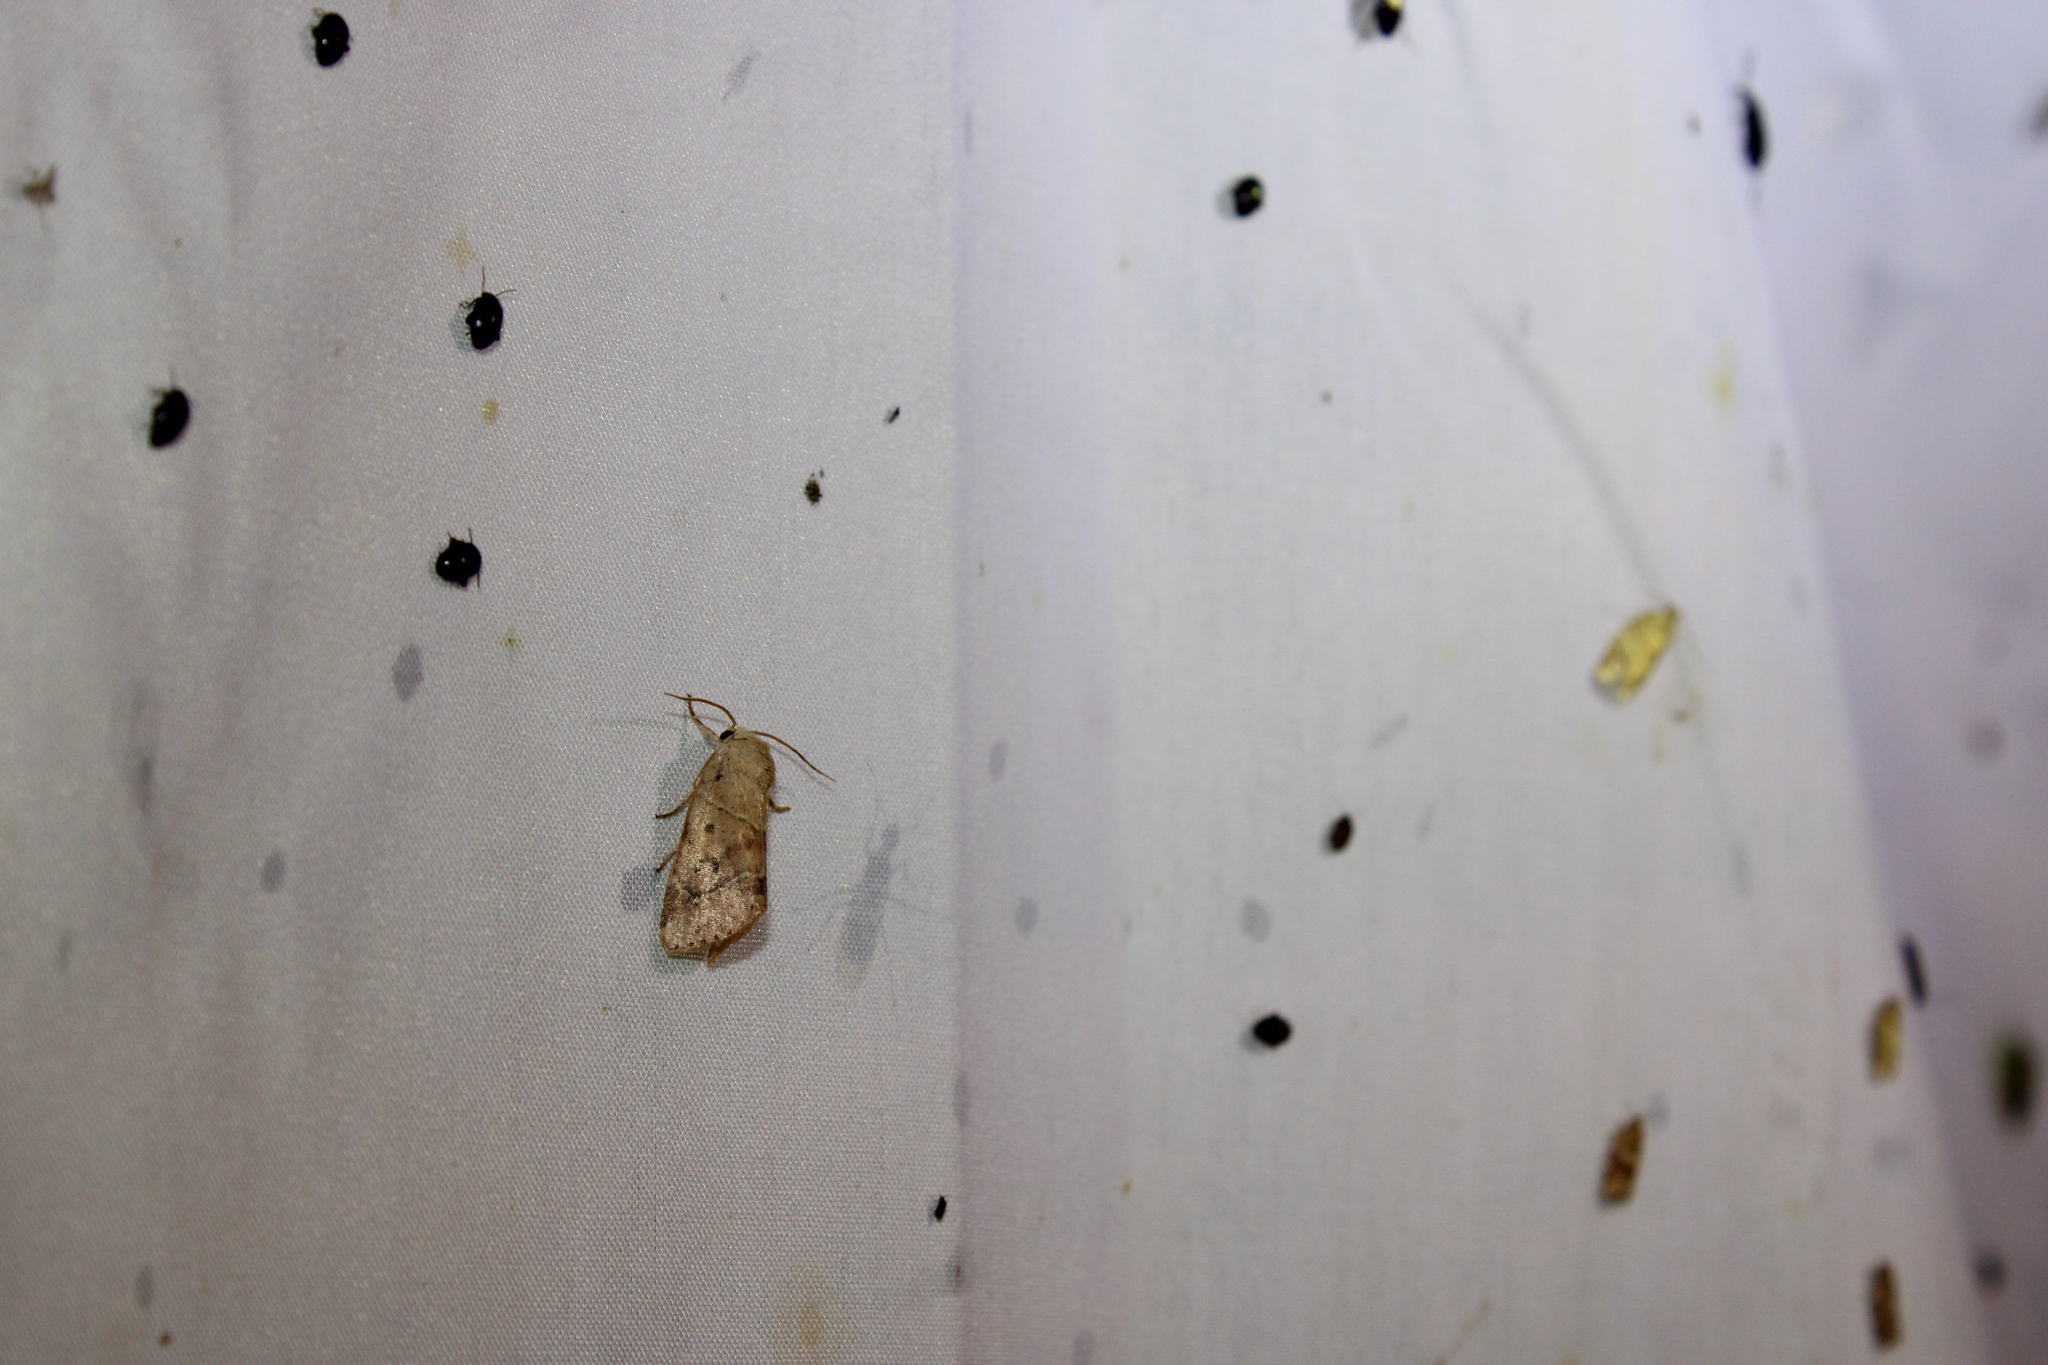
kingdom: Animalia
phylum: Arthropoda
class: Insecta
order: Lepidoptera
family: Noctuidae
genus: Cosmia
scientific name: Cosmia calami
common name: American dun-bar moth
